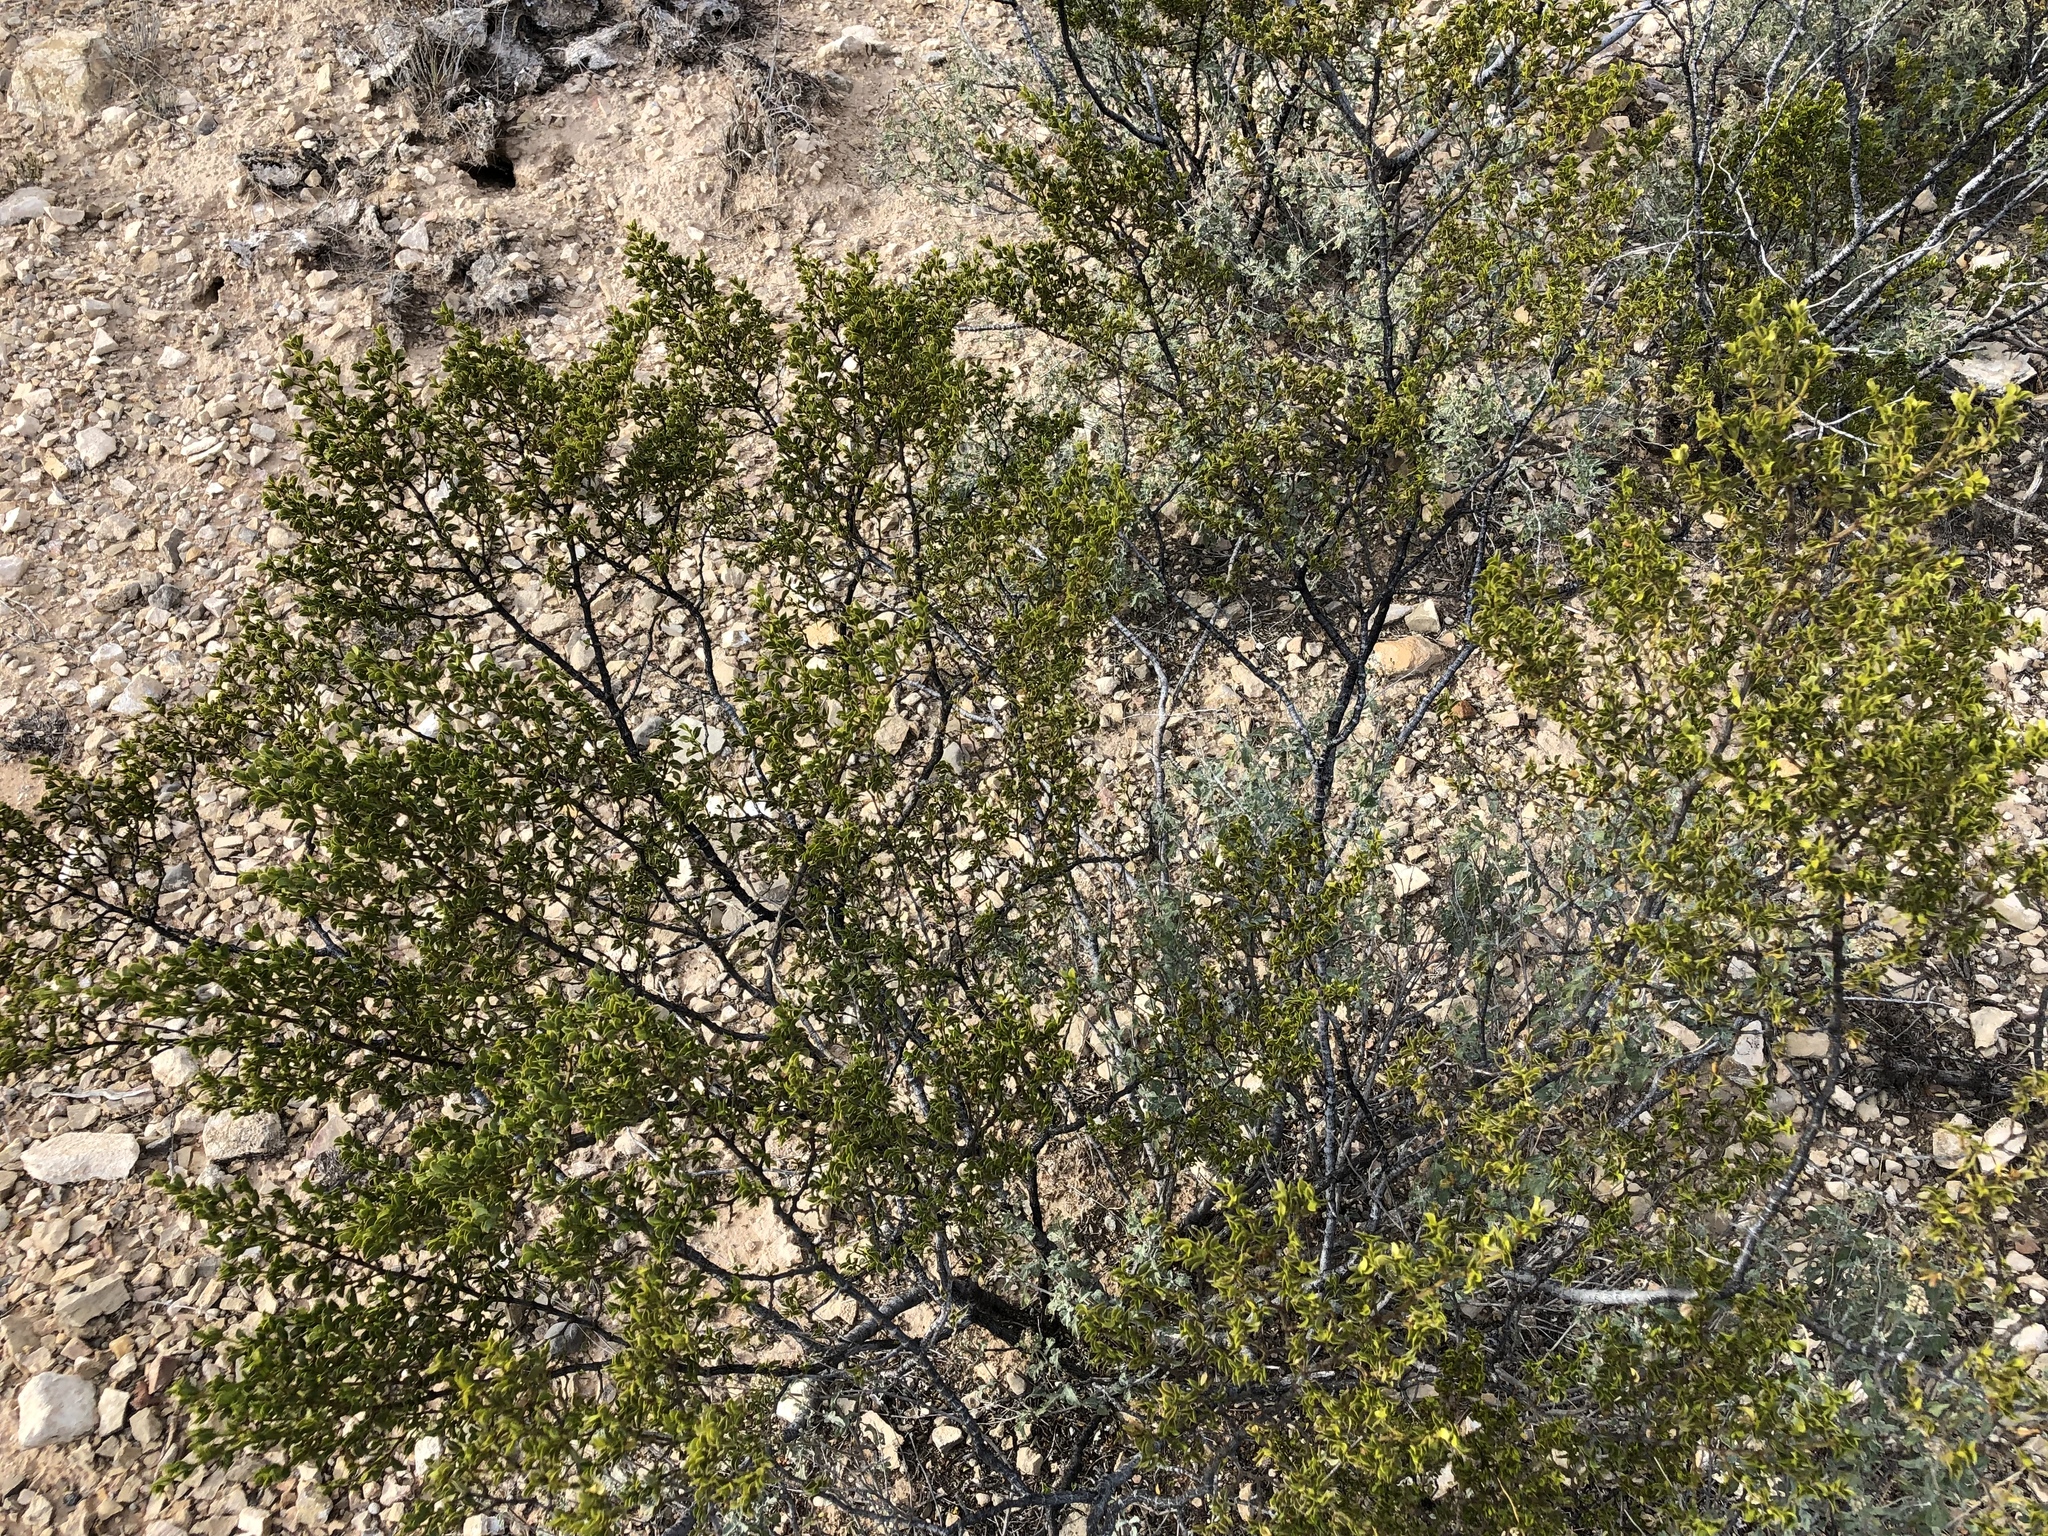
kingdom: Plantae
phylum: Tracheophyta
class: Magnoliopsida
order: Zygophyllales
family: Zygophyllaceae
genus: Larrea
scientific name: Larrea tridentata
